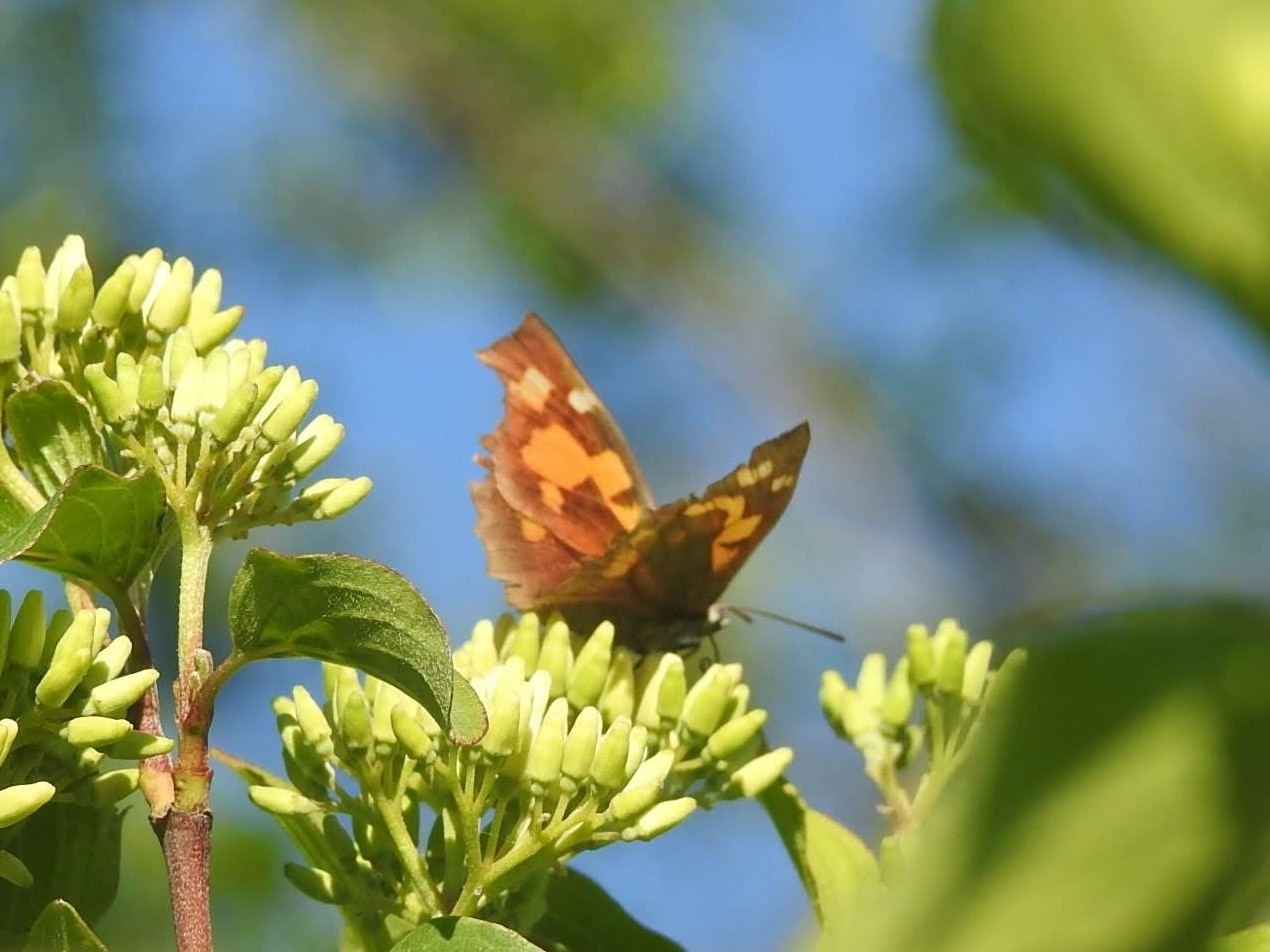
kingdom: Animalia
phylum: Arthropoda
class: Insecta
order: Lepidoptera
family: Nymphalidae
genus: Libythea
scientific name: Libythea celtis
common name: Nettle-tree butterfly
